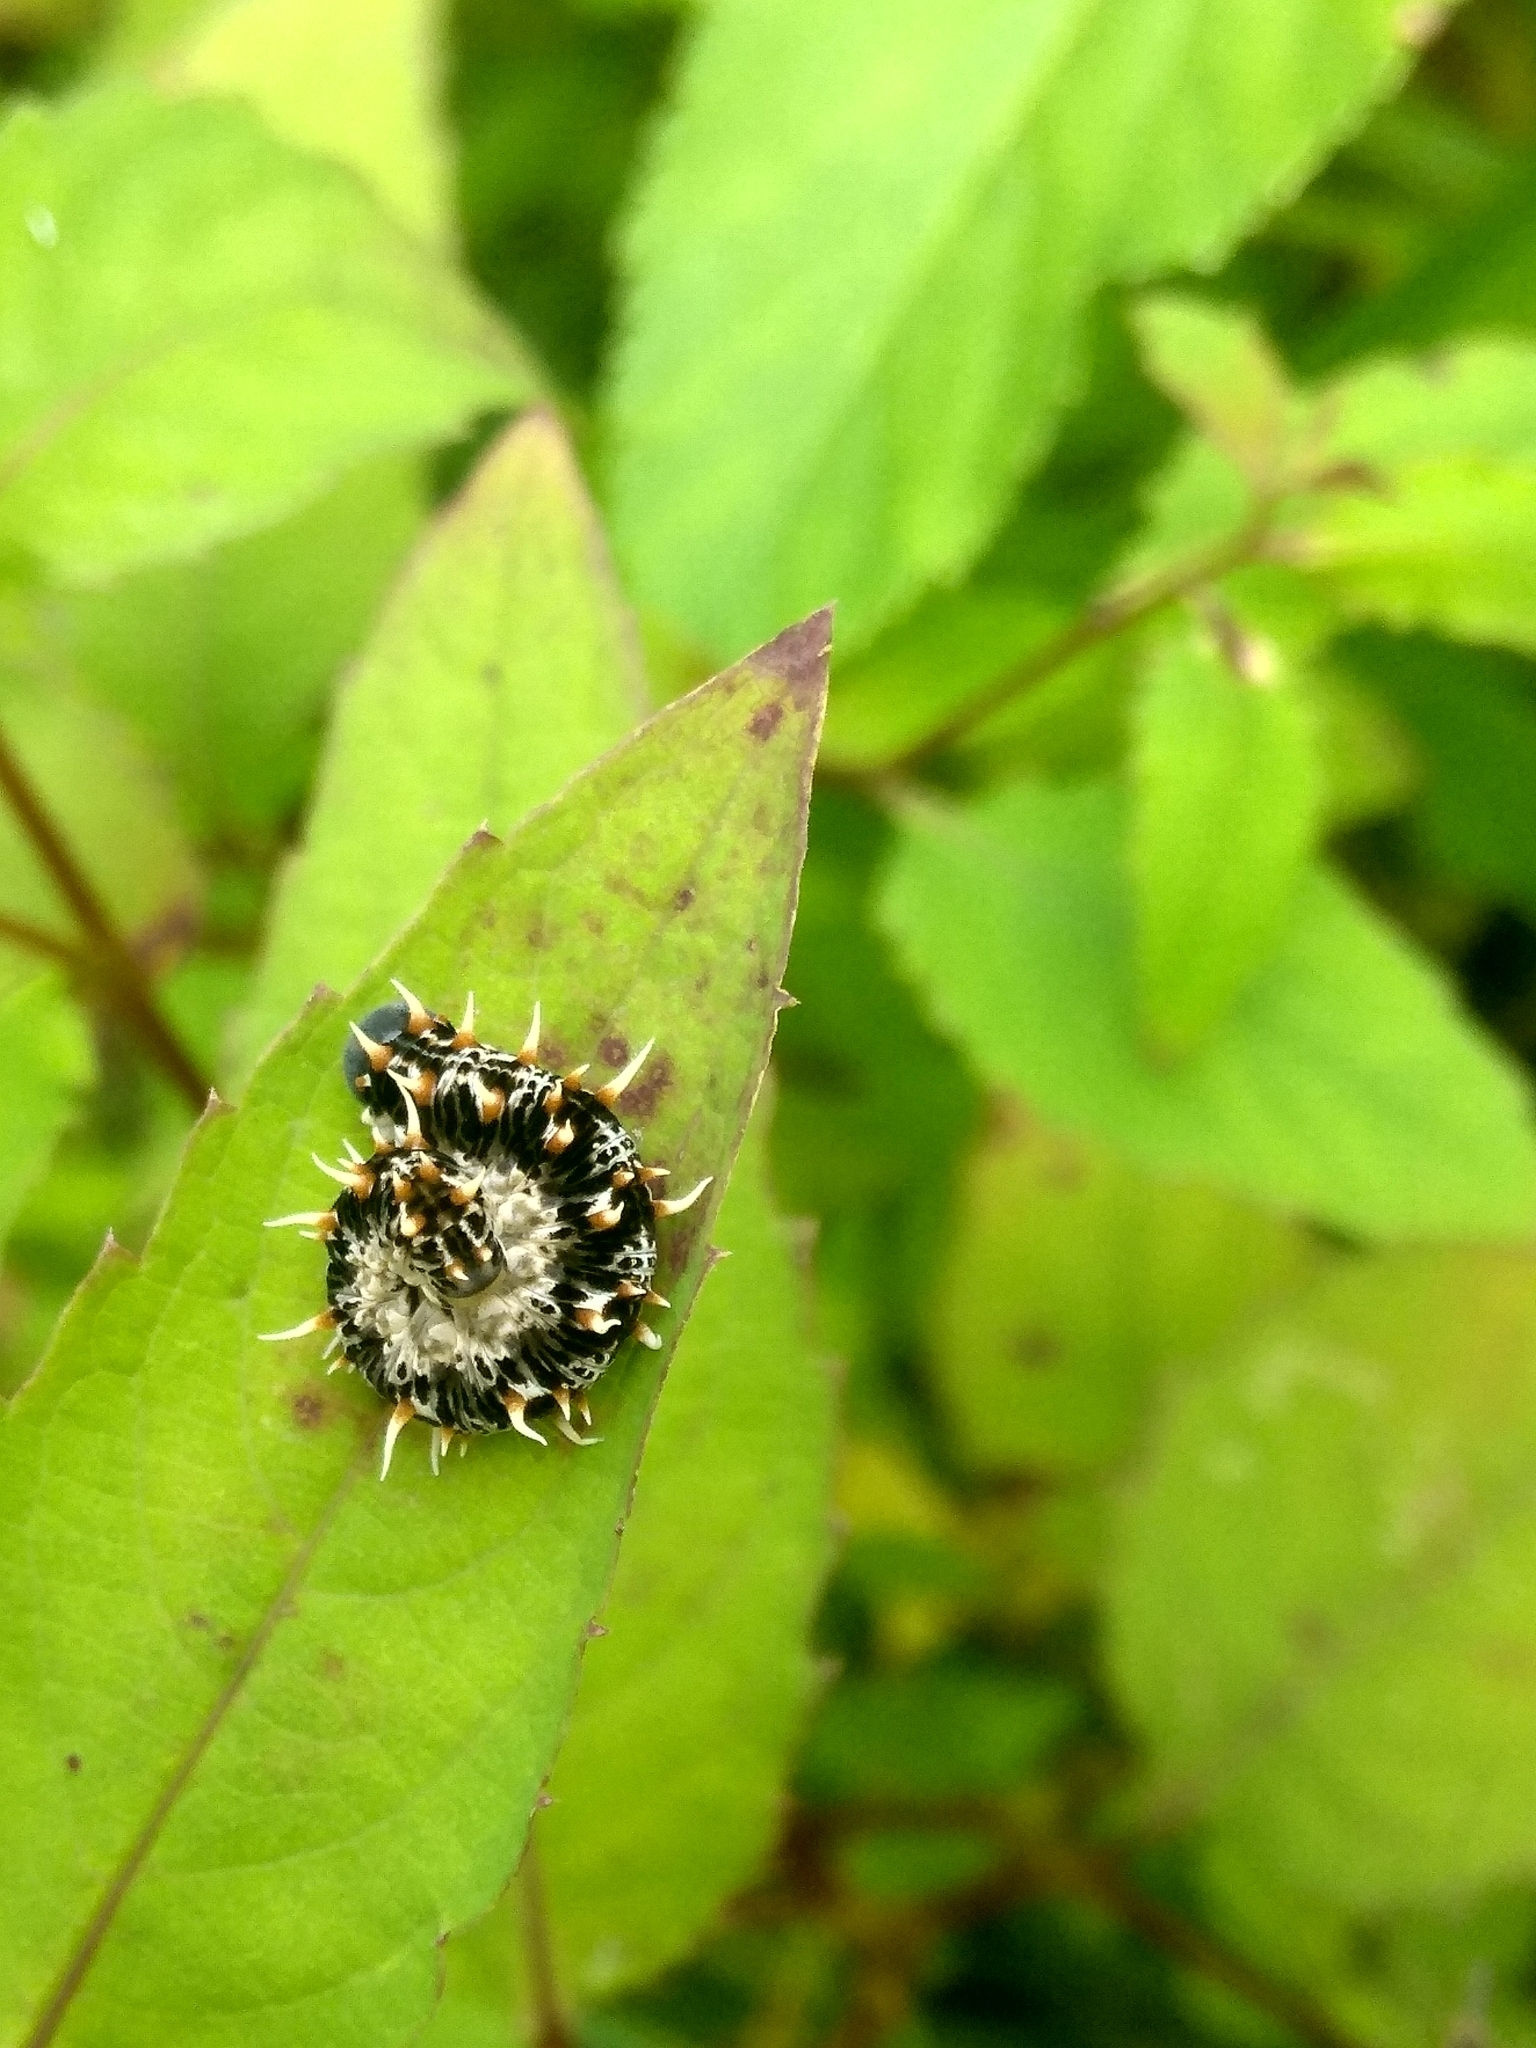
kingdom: Animalia
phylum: Arthropoda
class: Insecta
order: Hymenoptera
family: Tenthredinidae
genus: Siobla
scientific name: Siobla ruficornis
